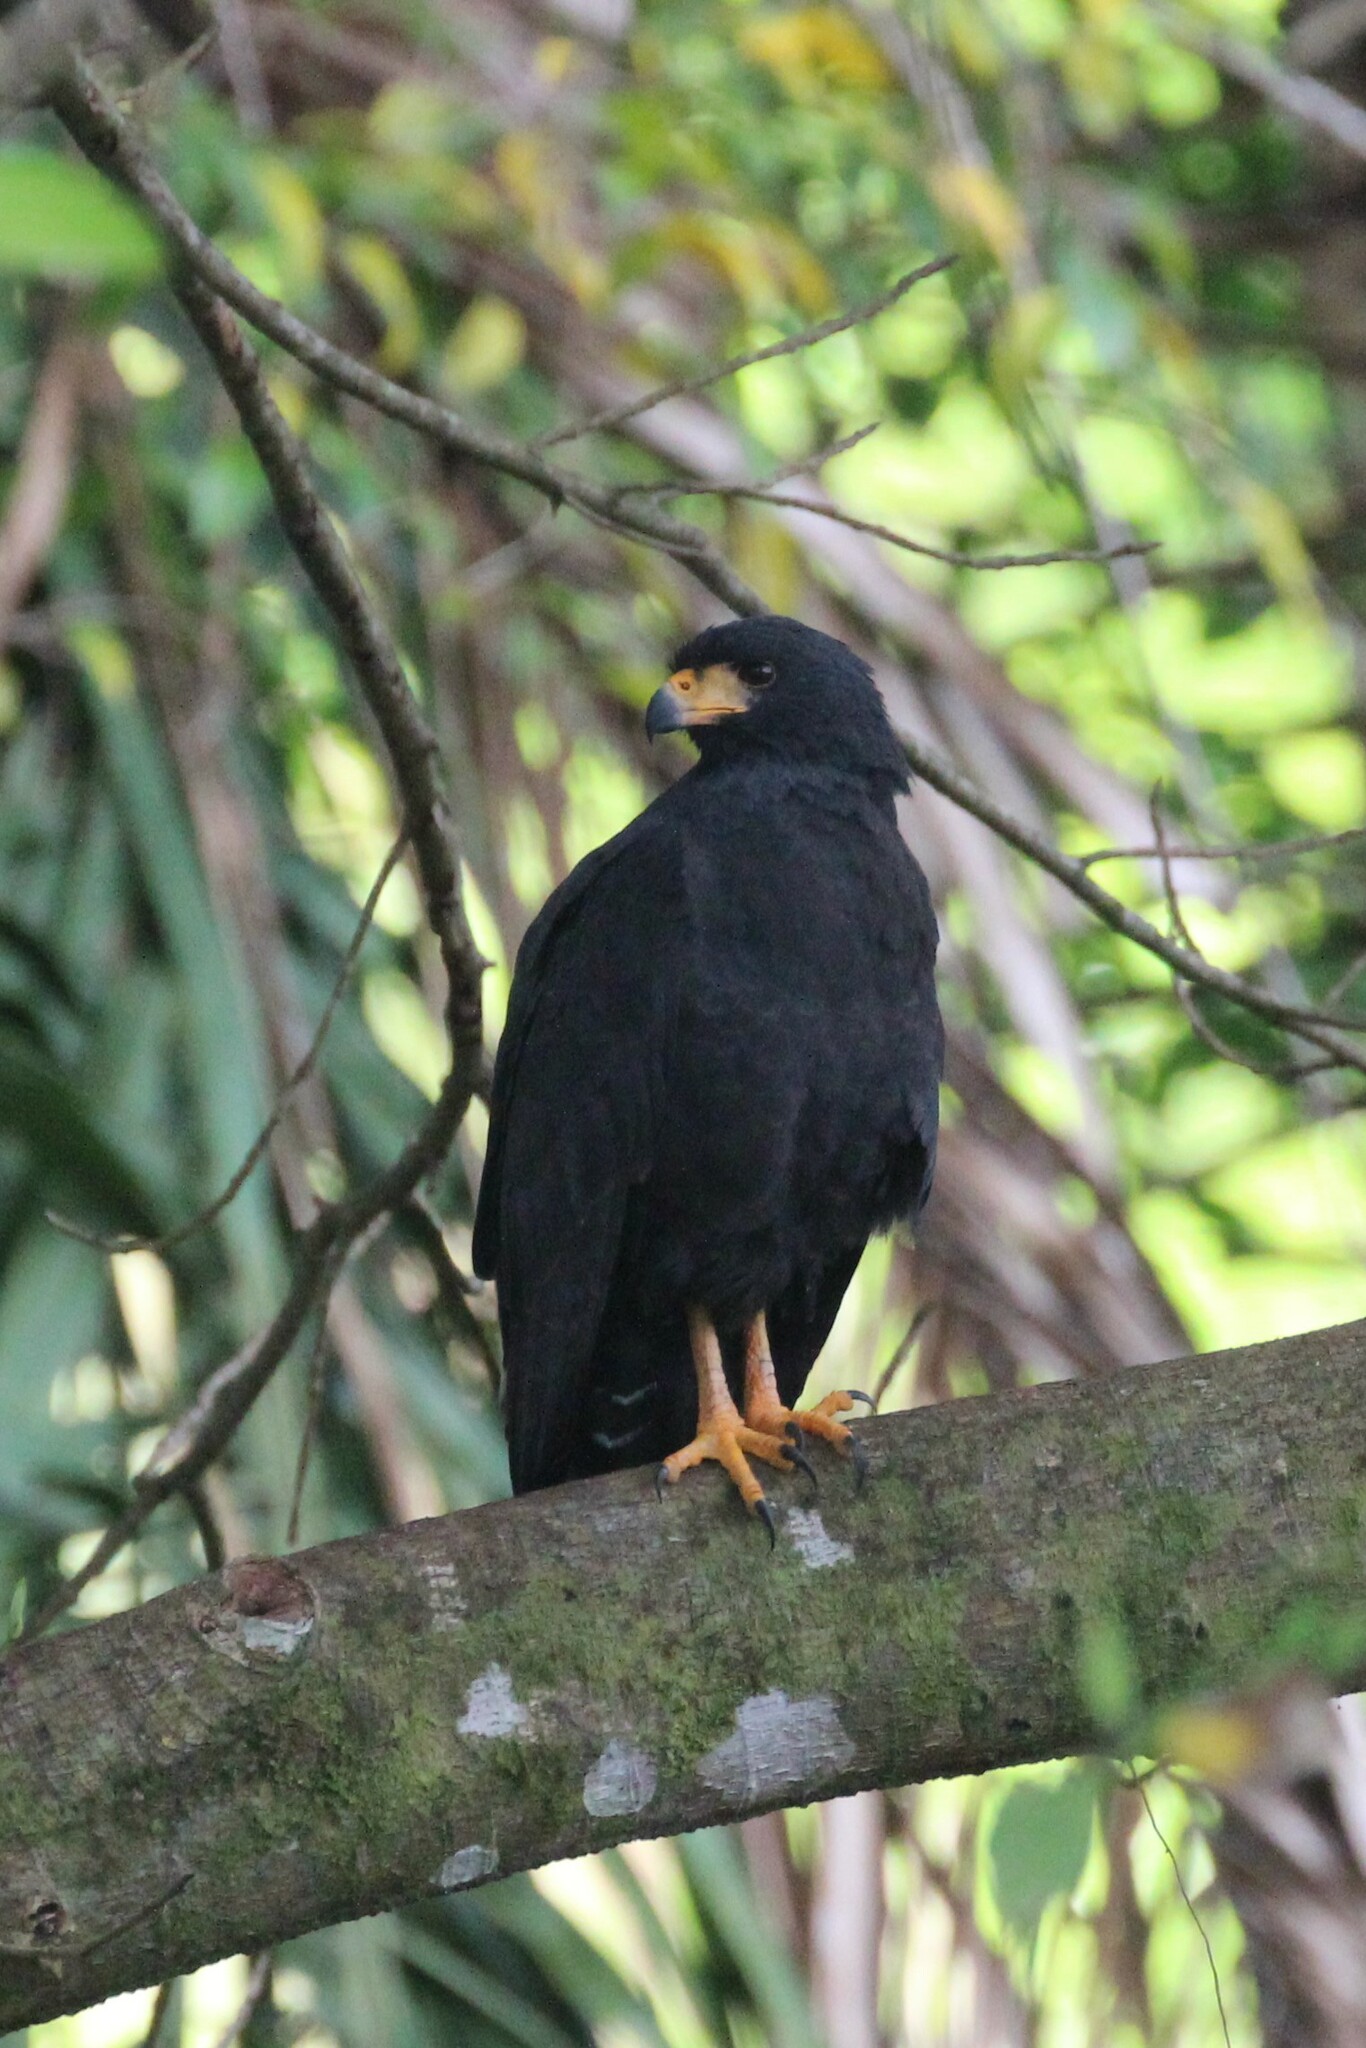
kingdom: Animalia
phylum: Chordata
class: Aves
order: Accipitriformes
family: Accipitridae
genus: Buteogallus
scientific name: Buteogallus anthracinus
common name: Common black hawk
